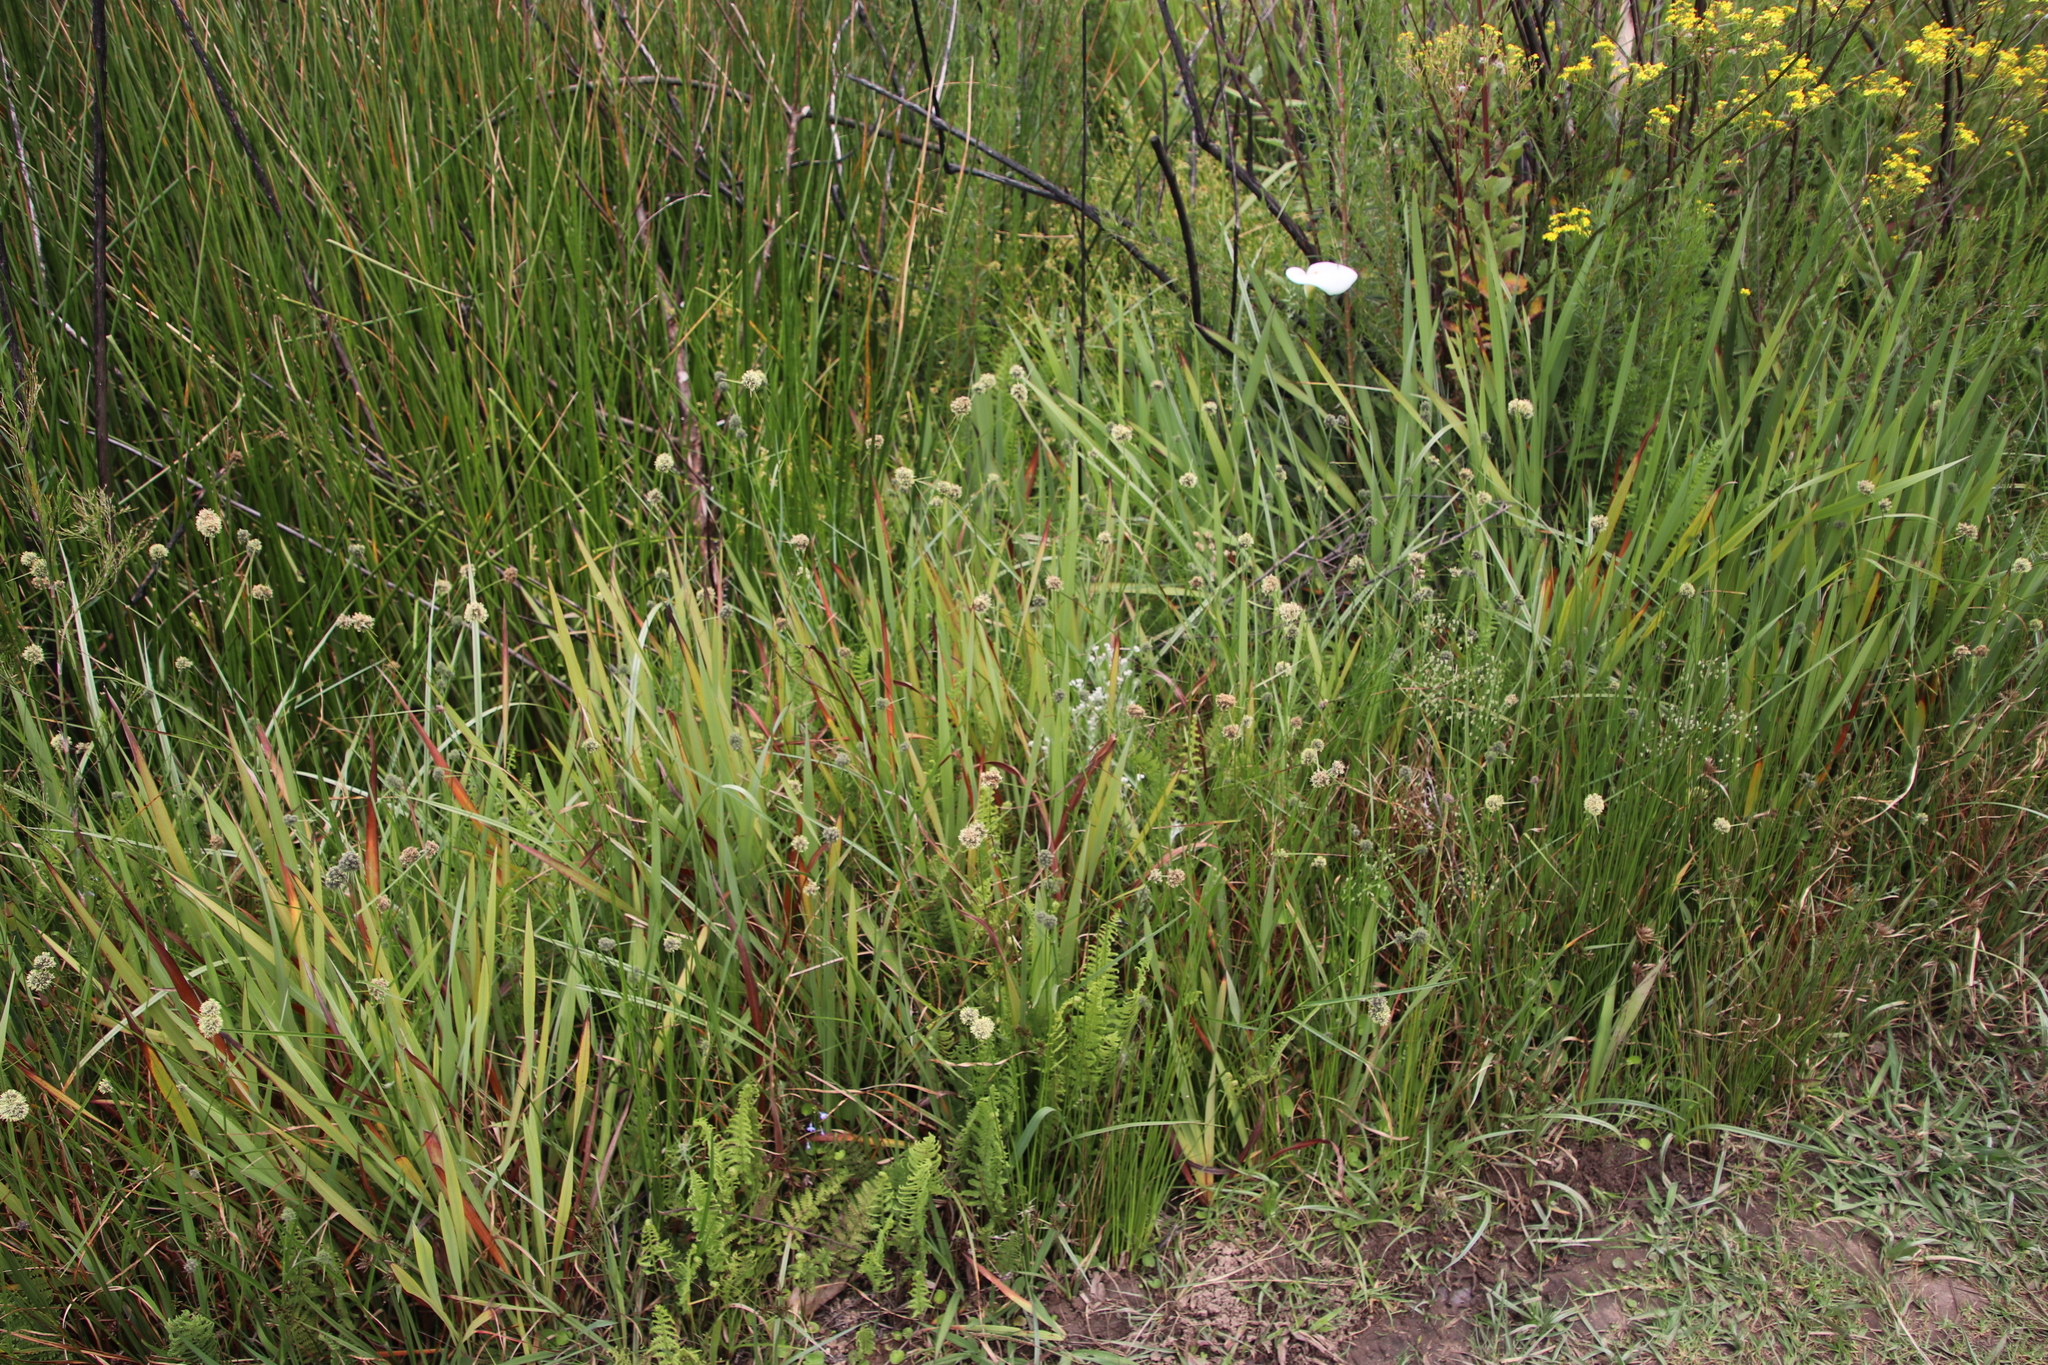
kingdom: Plantae
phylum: Tracheophyta
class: Liliopsida
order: Poales
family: Cyperaceae
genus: Fuirena
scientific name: Fuirena hirsuta
